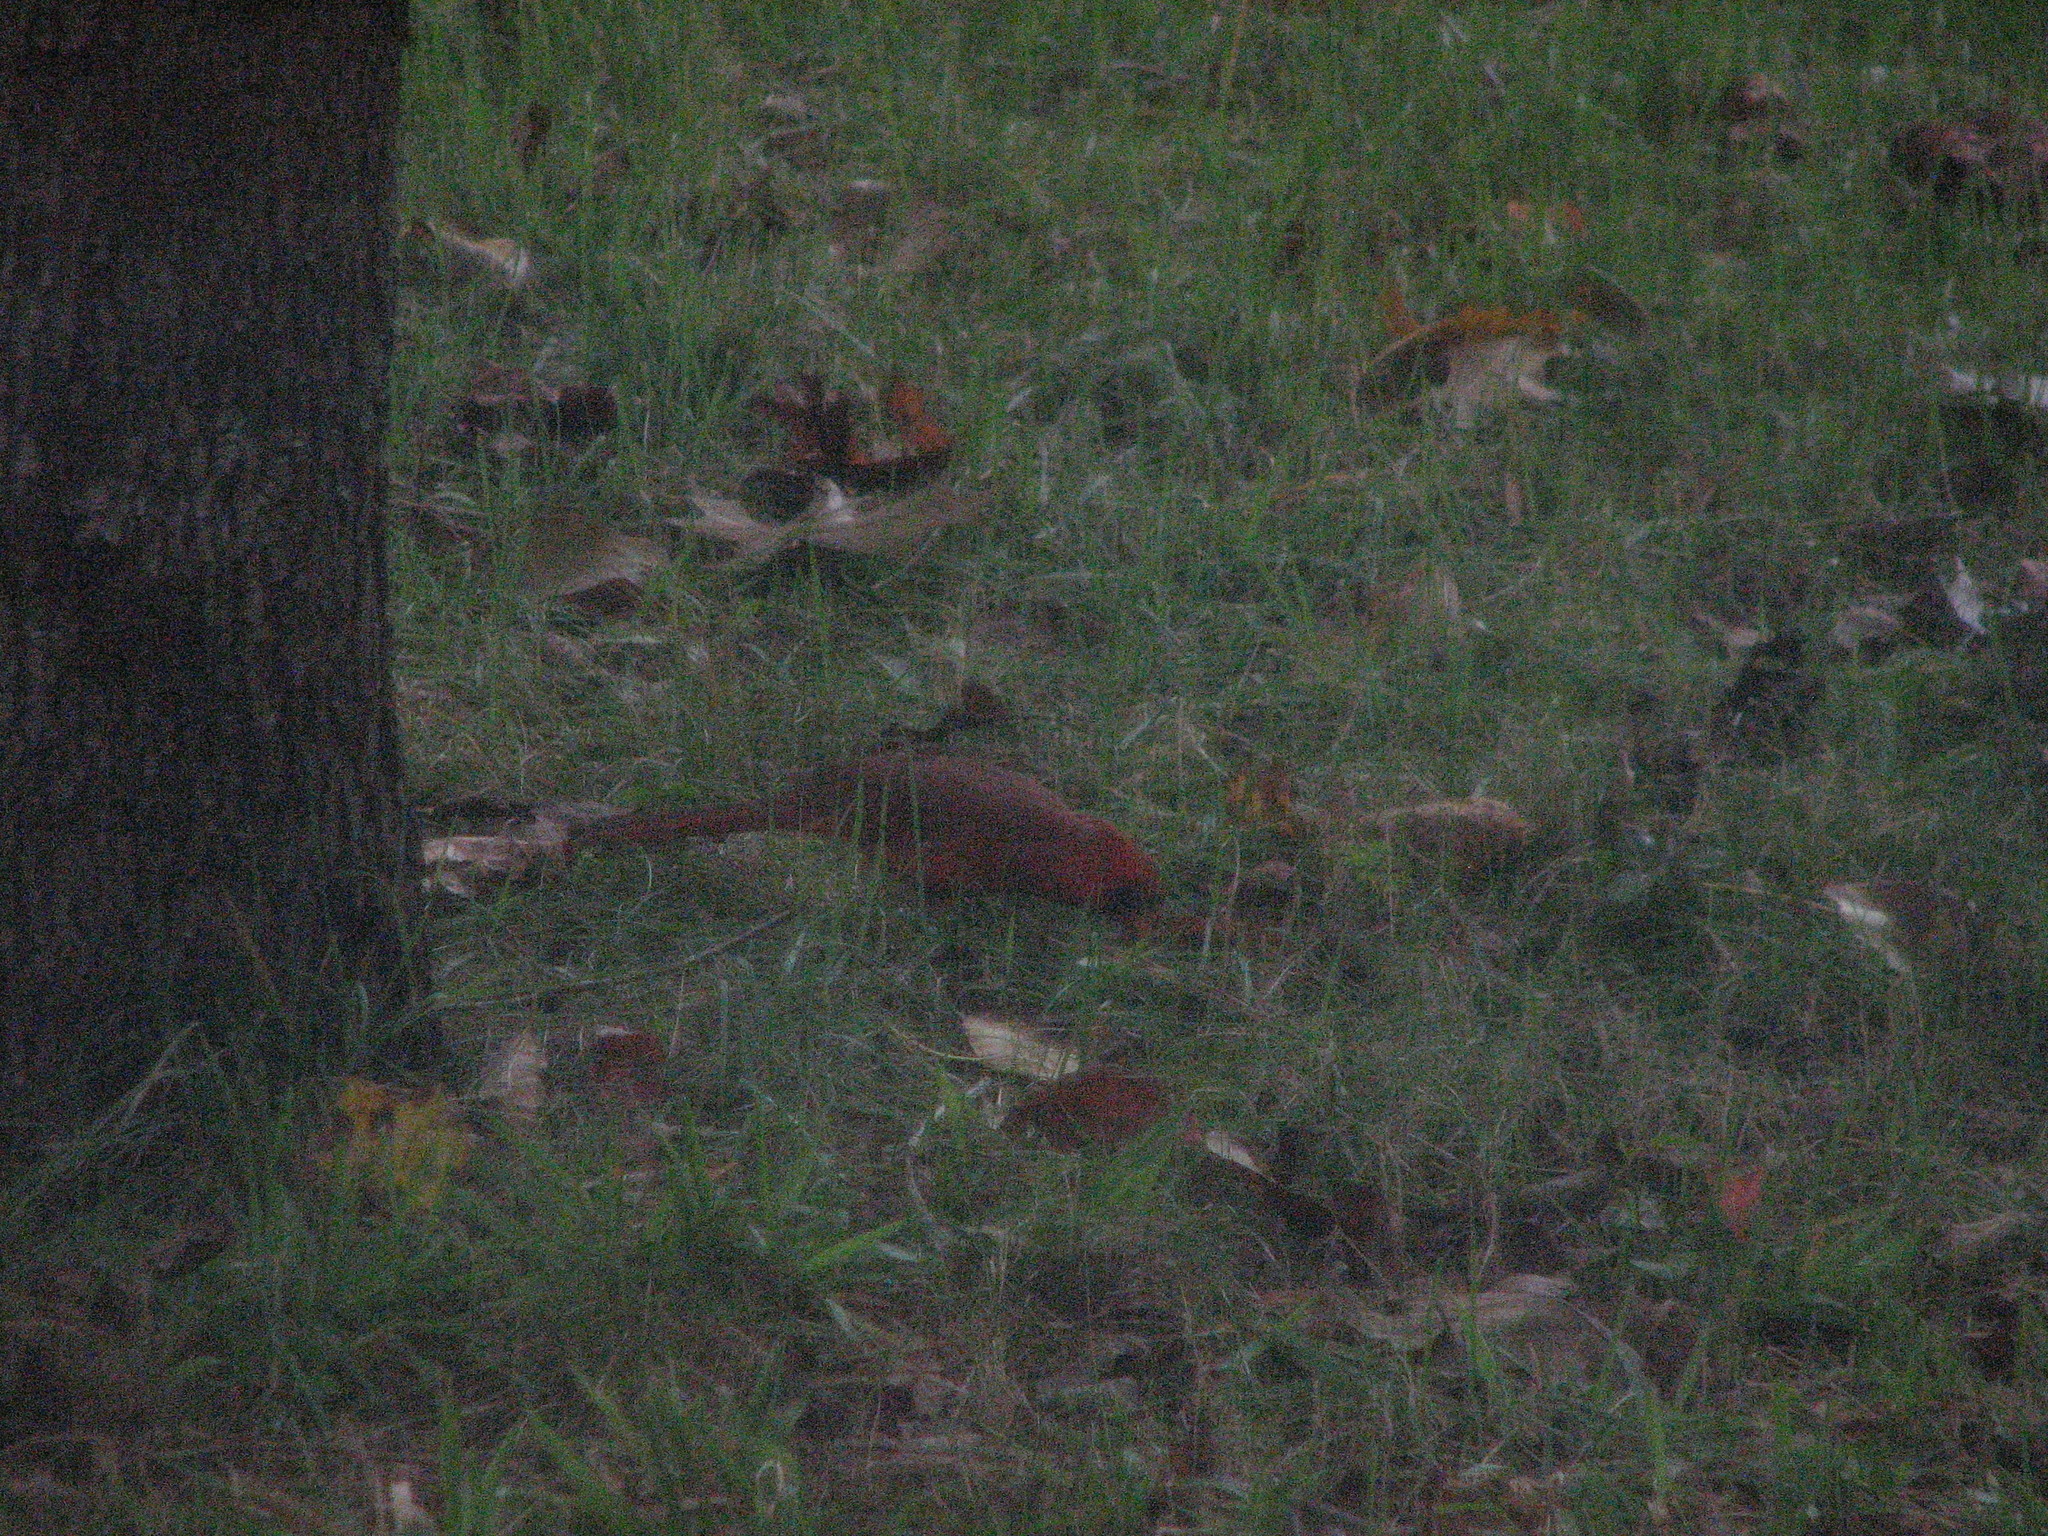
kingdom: Animalia
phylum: Chordata
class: Aves
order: Passeriformes
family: Cardinalidae
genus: Cardinalis
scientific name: Cardinalis cardinalis
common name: Northern cardinal
